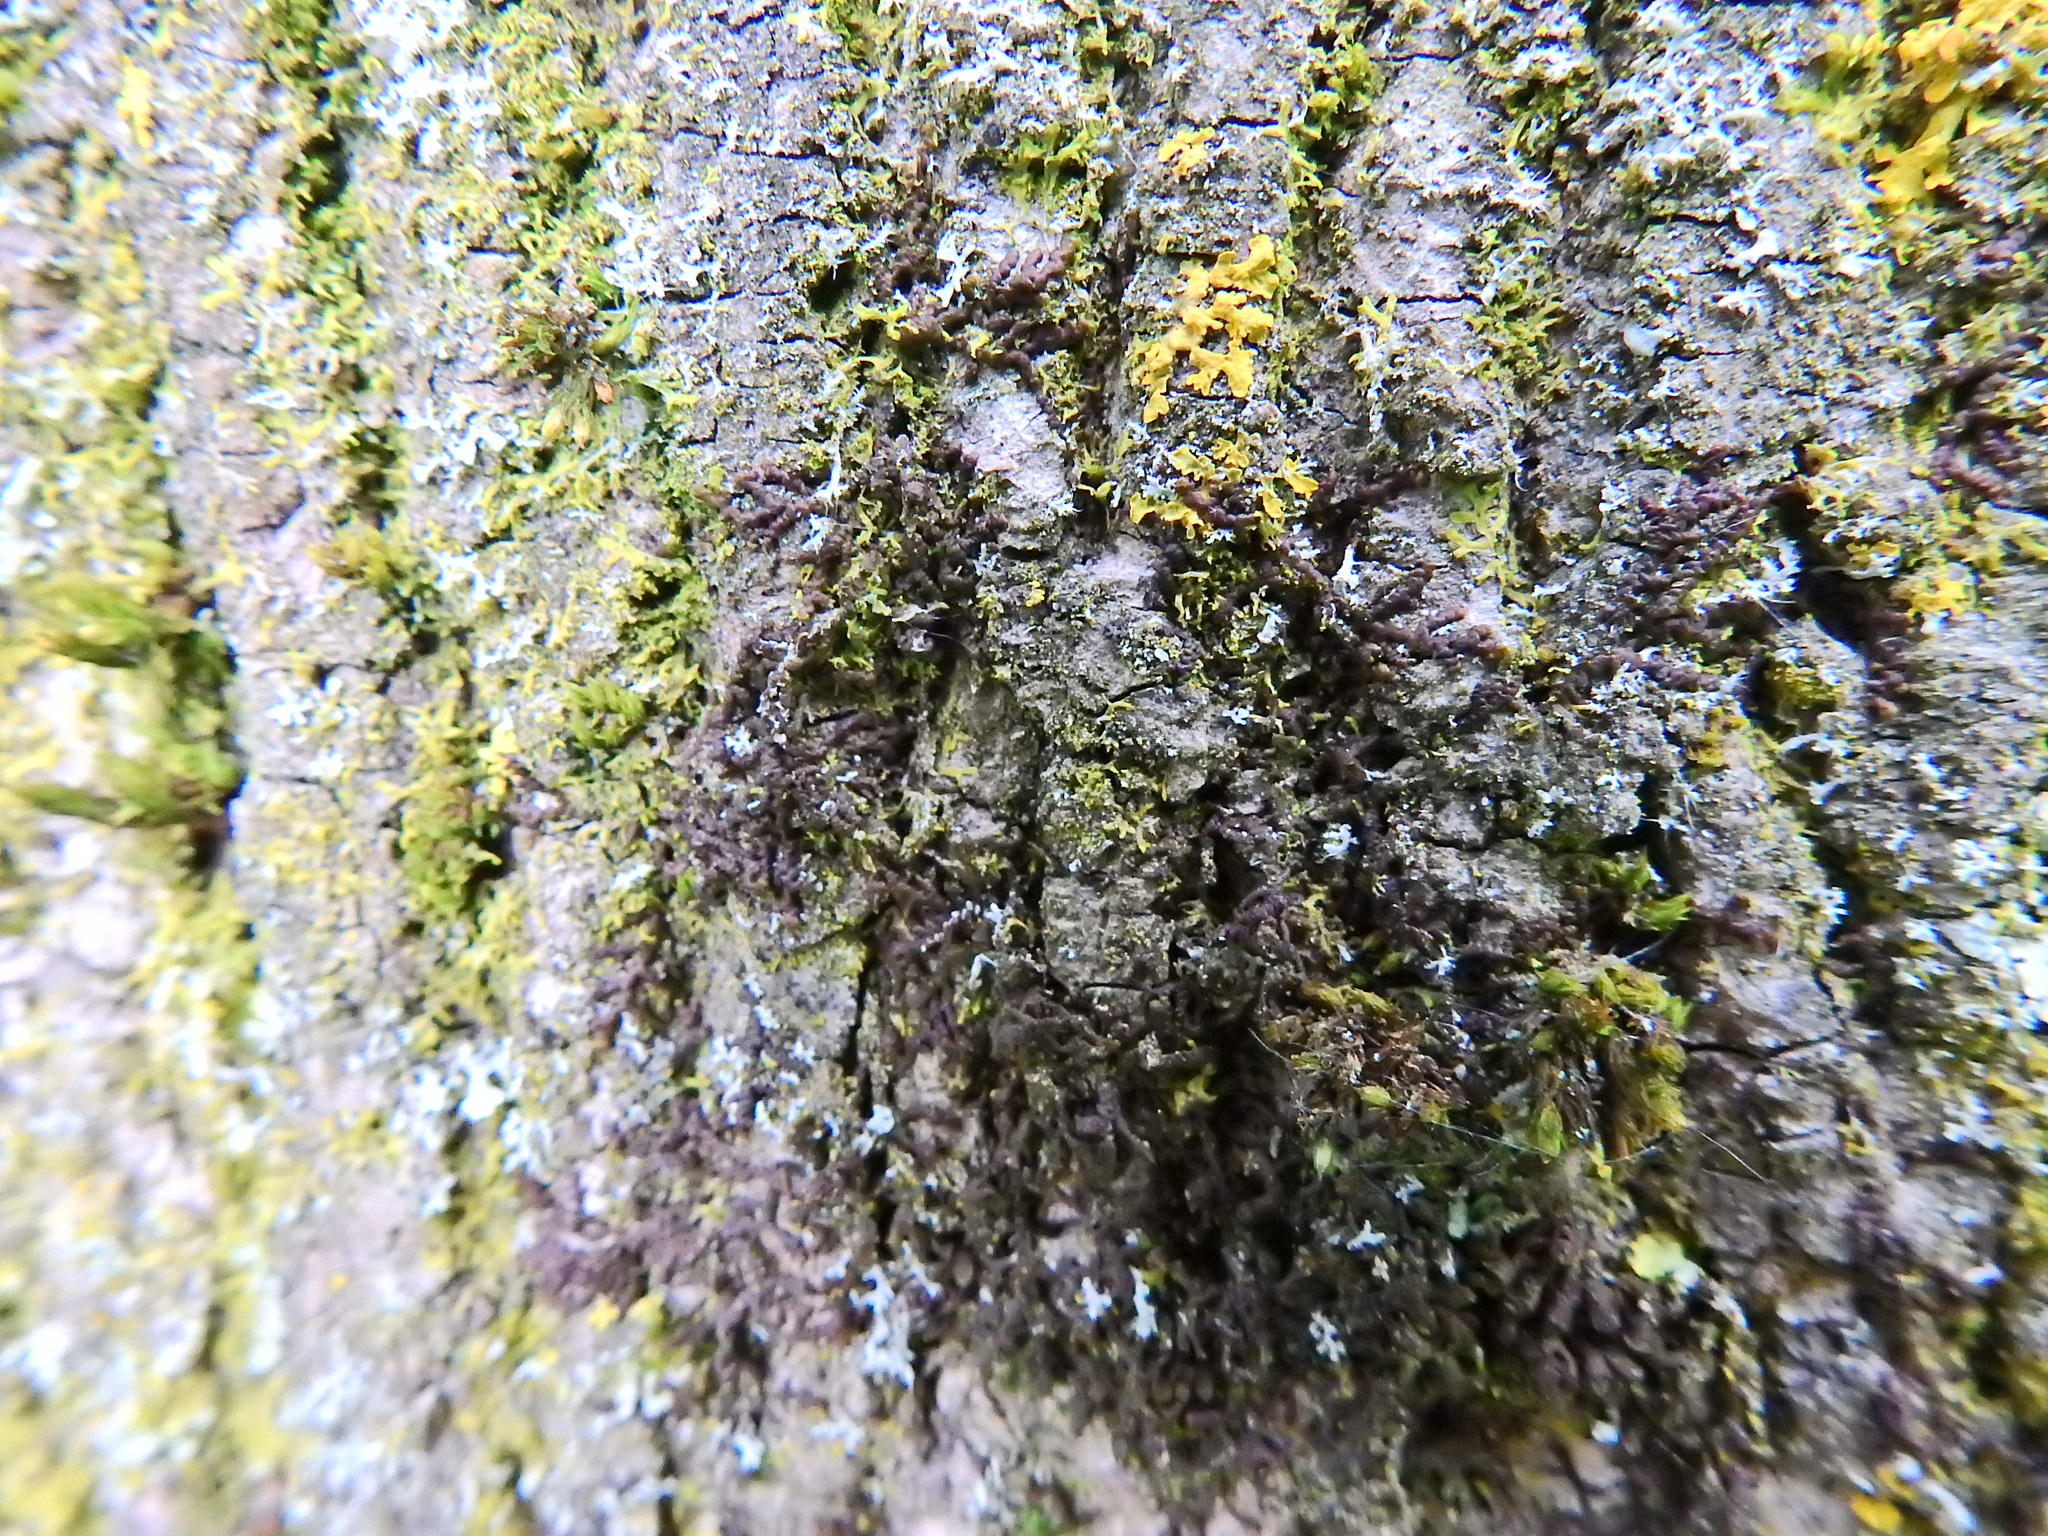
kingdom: Plantae
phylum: Marchantiophyta
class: Jungermanniopsida
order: Porellales
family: Frullaniaceae
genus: Frullania
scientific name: Frullania dilatata
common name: Dilated scalewort
